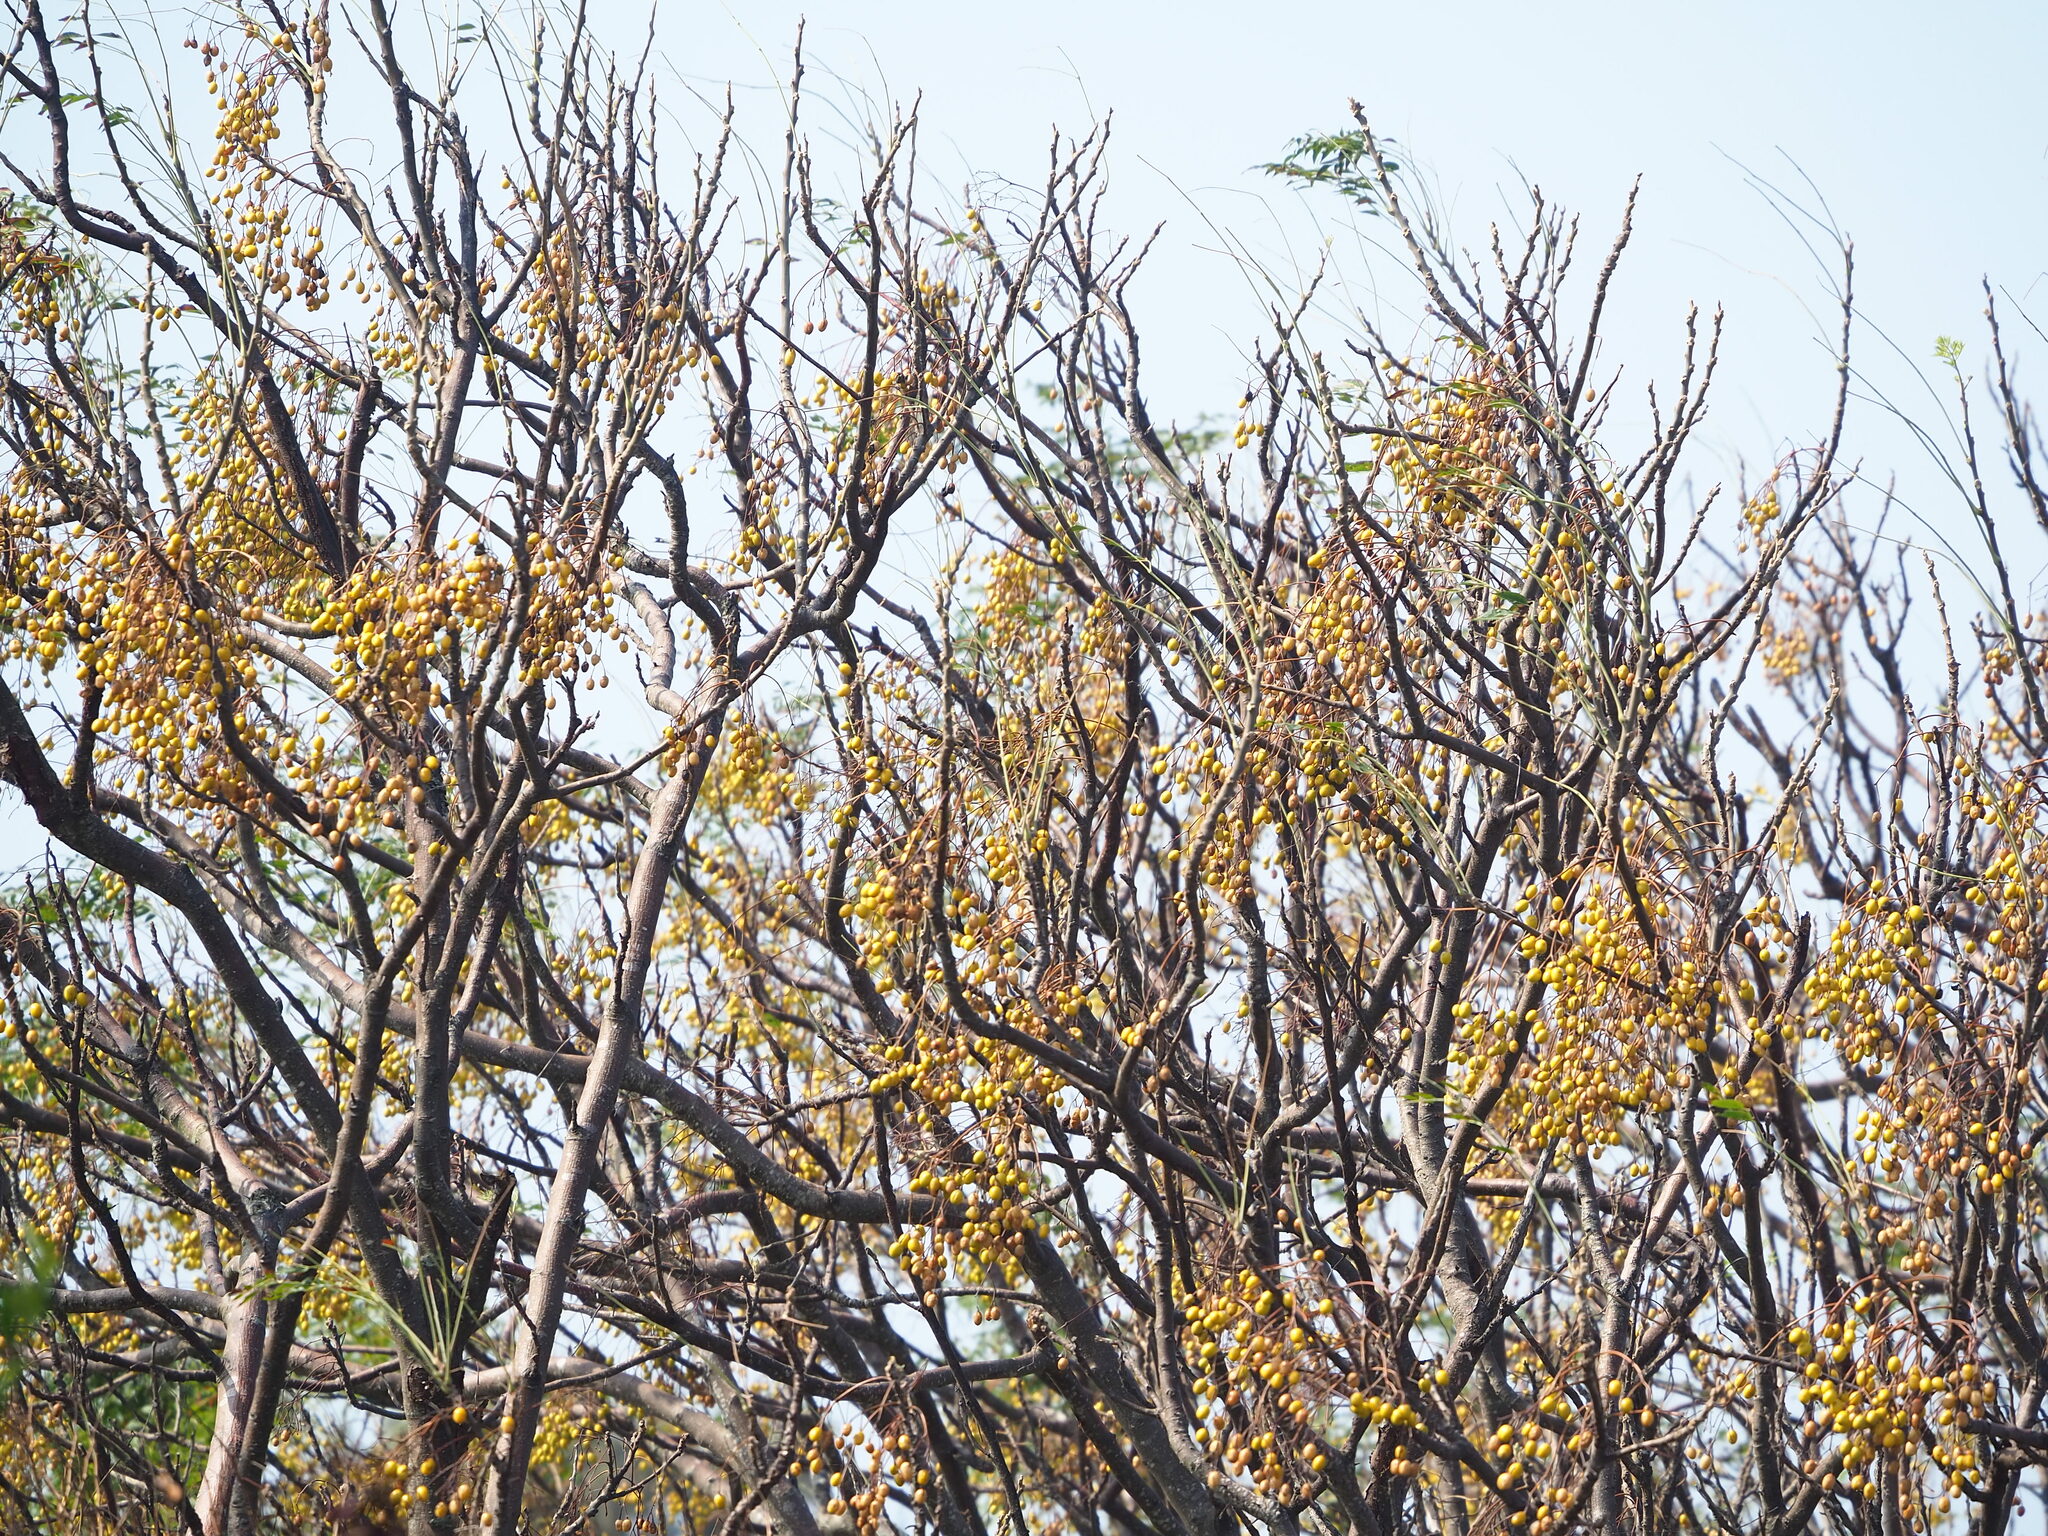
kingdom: Plantae
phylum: Tracheophyta
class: Magnoliopsida
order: Sapindales
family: Meliaceae
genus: Melia
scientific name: Melia azedarach
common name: Chinaberrytree
